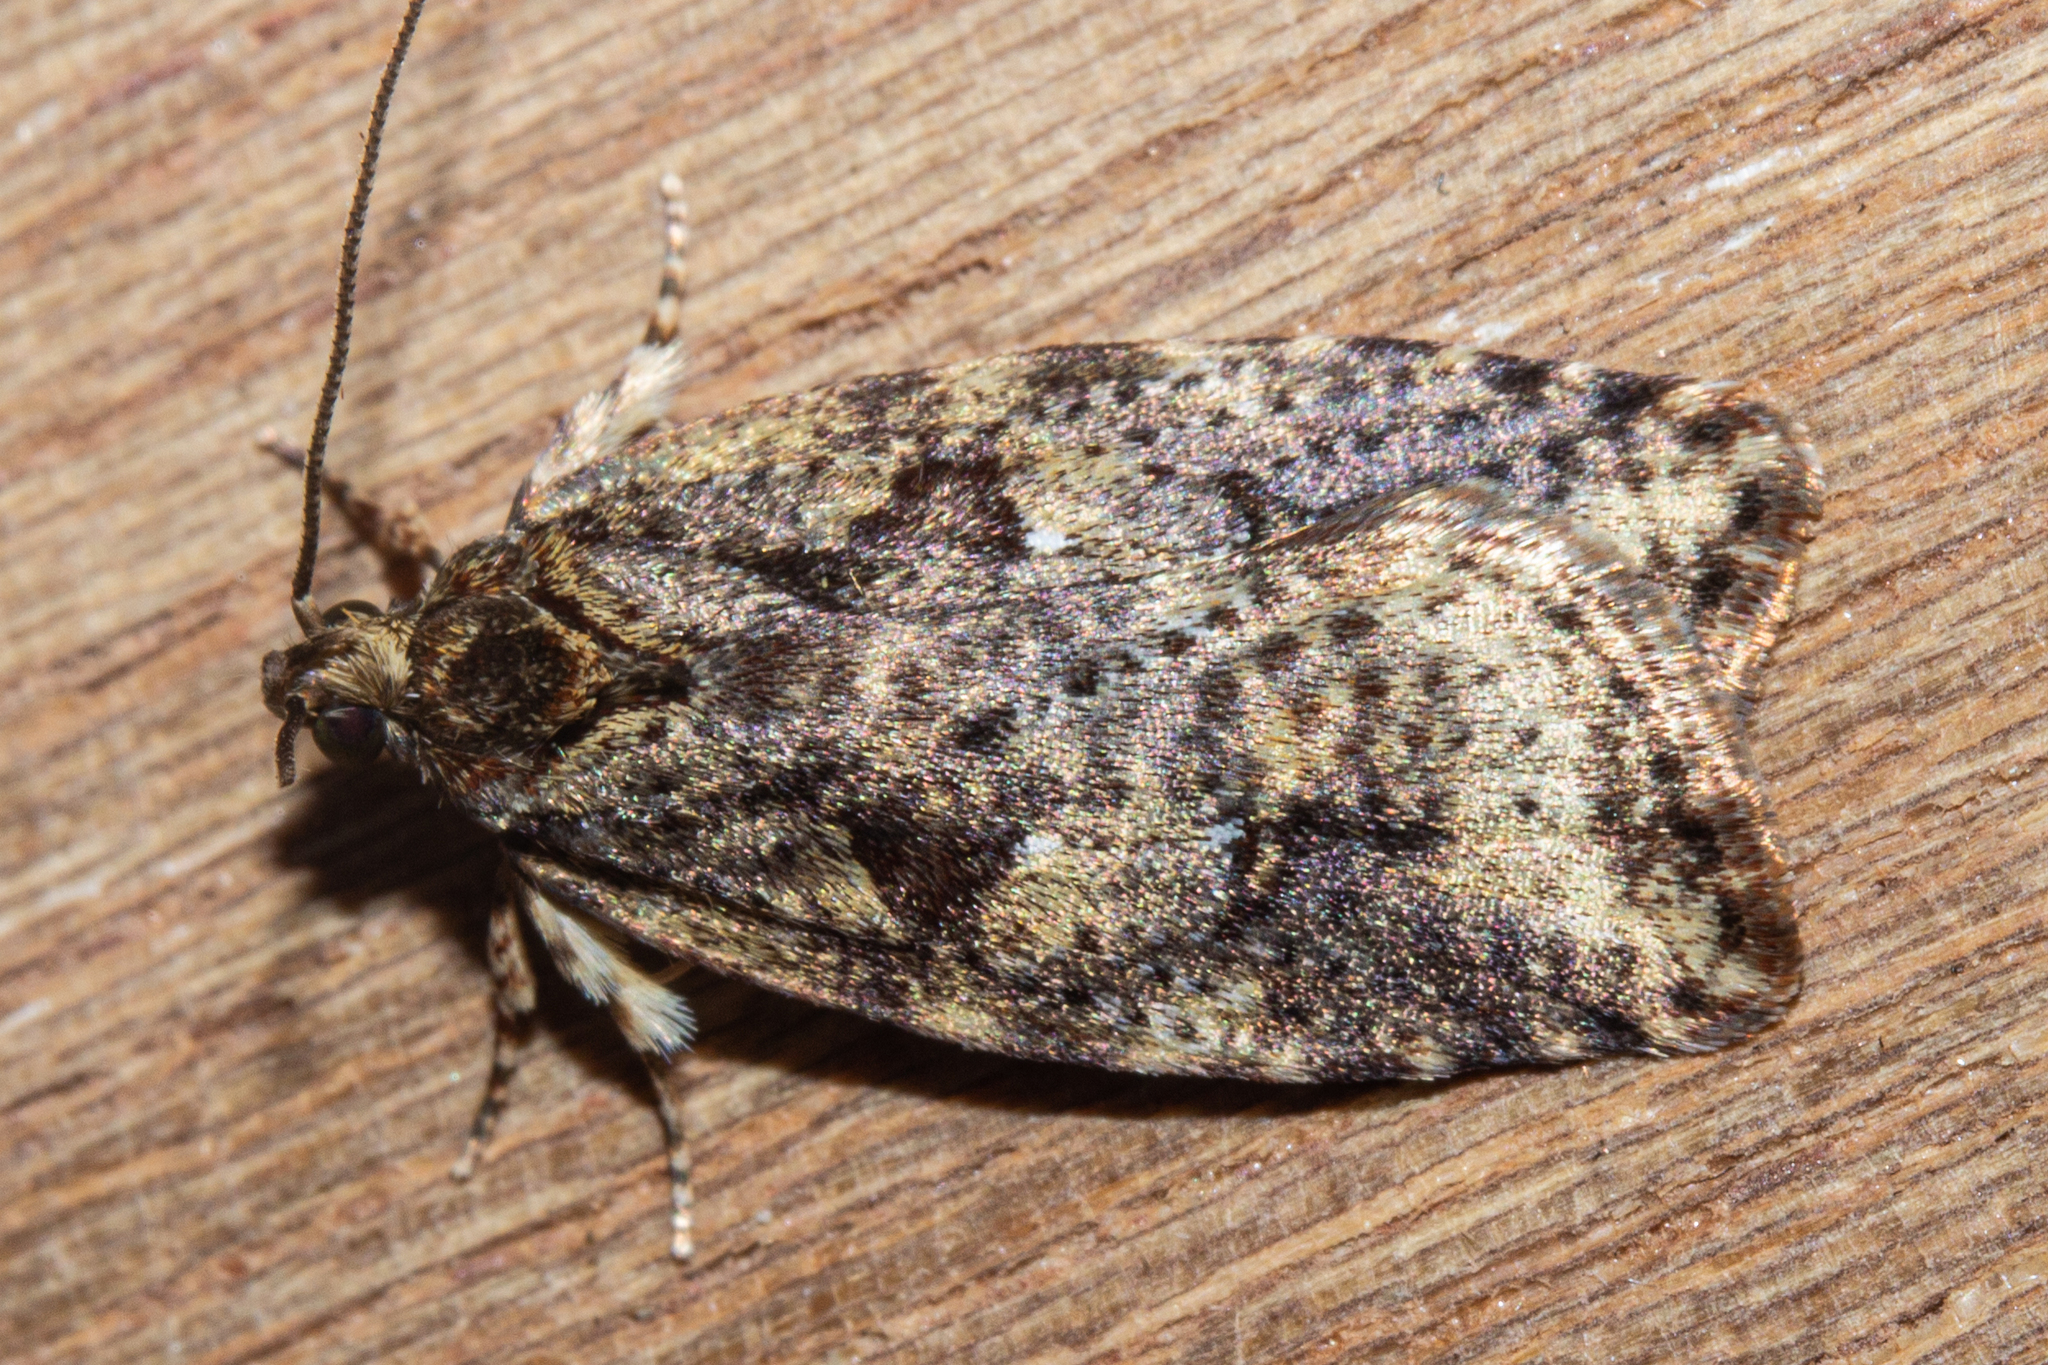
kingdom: Animalia
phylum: Arthropoda
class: Insecta
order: Lepidoptera
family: Oecophoridae
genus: Proteodes
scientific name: Proteodes profunda
